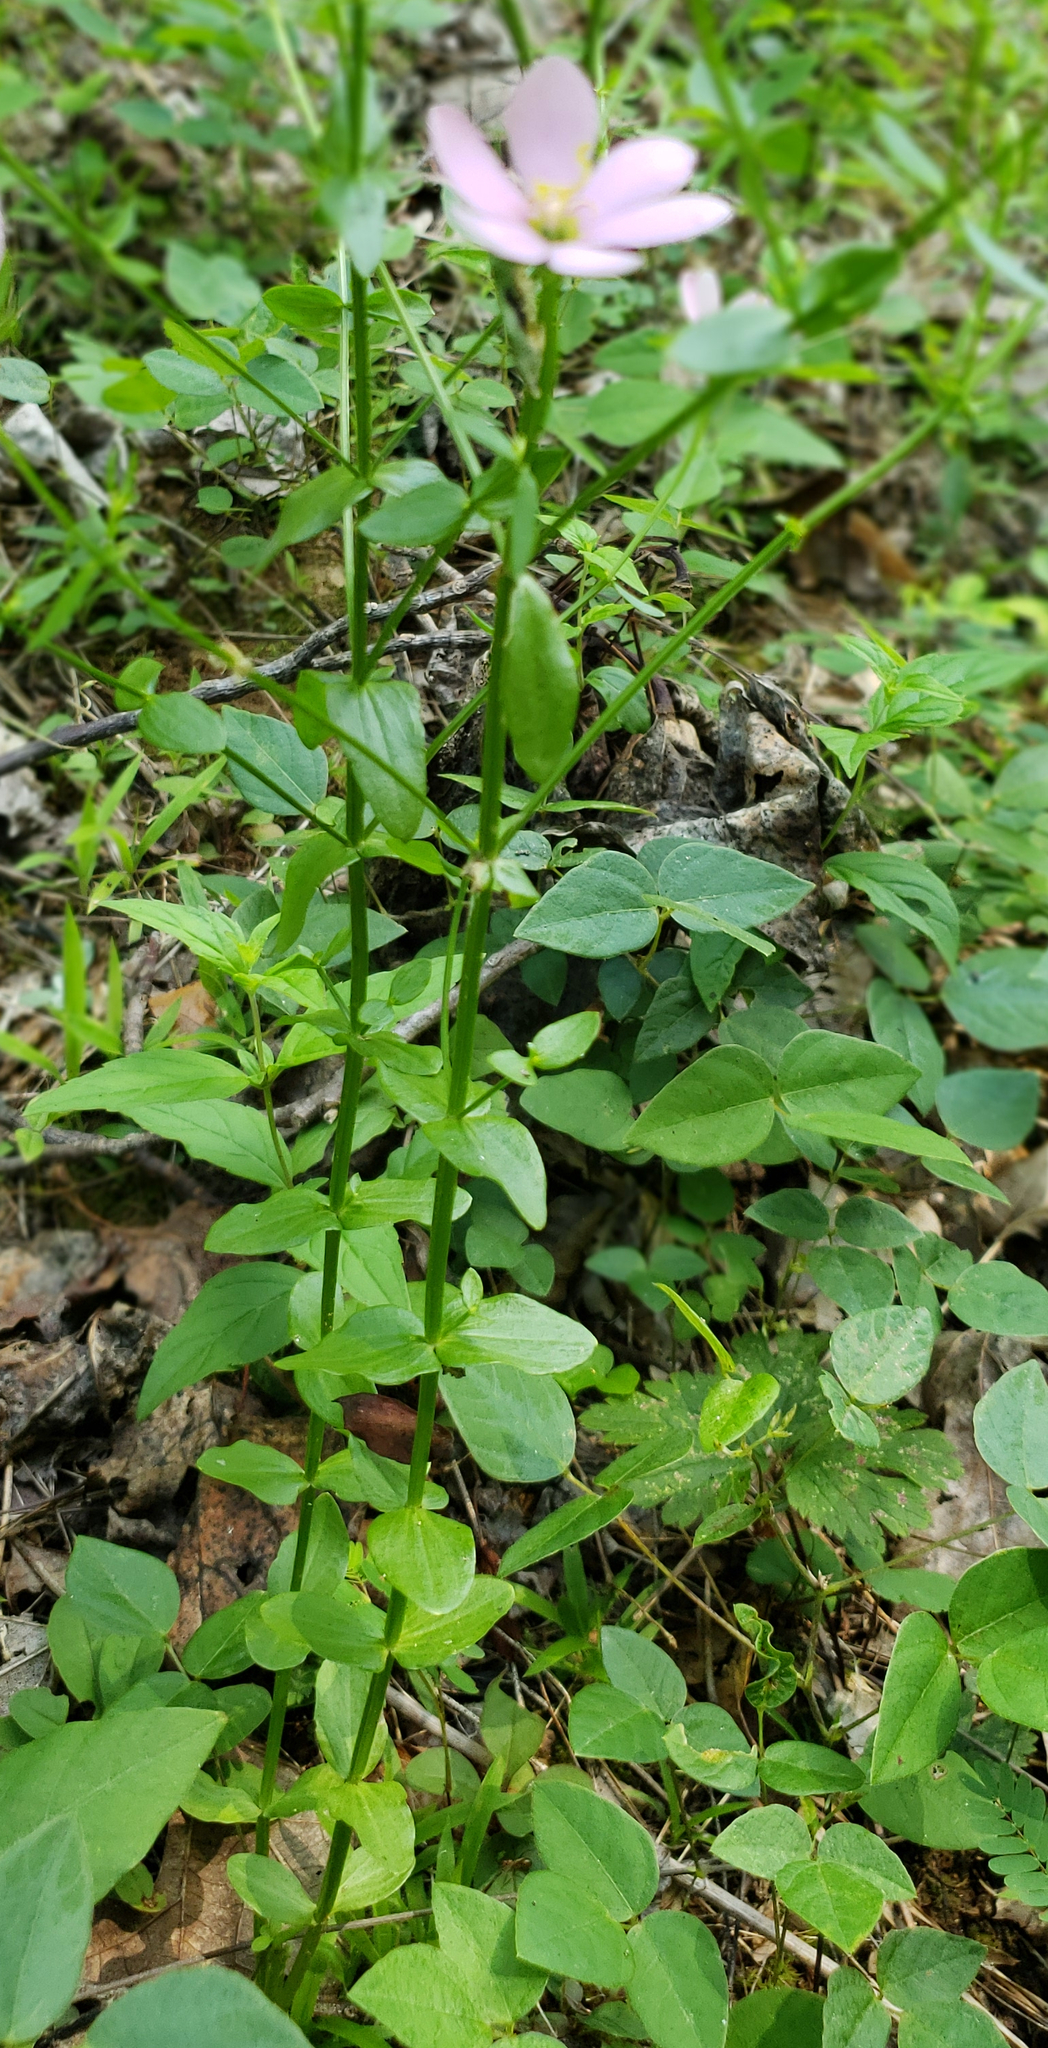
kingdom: Plantae
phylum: Tracheophyta
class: Magnoliopsida
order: Gentianales
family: Gentianaceae
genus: Sabatia
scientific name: Sabatia angularis
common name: Rose-pink
